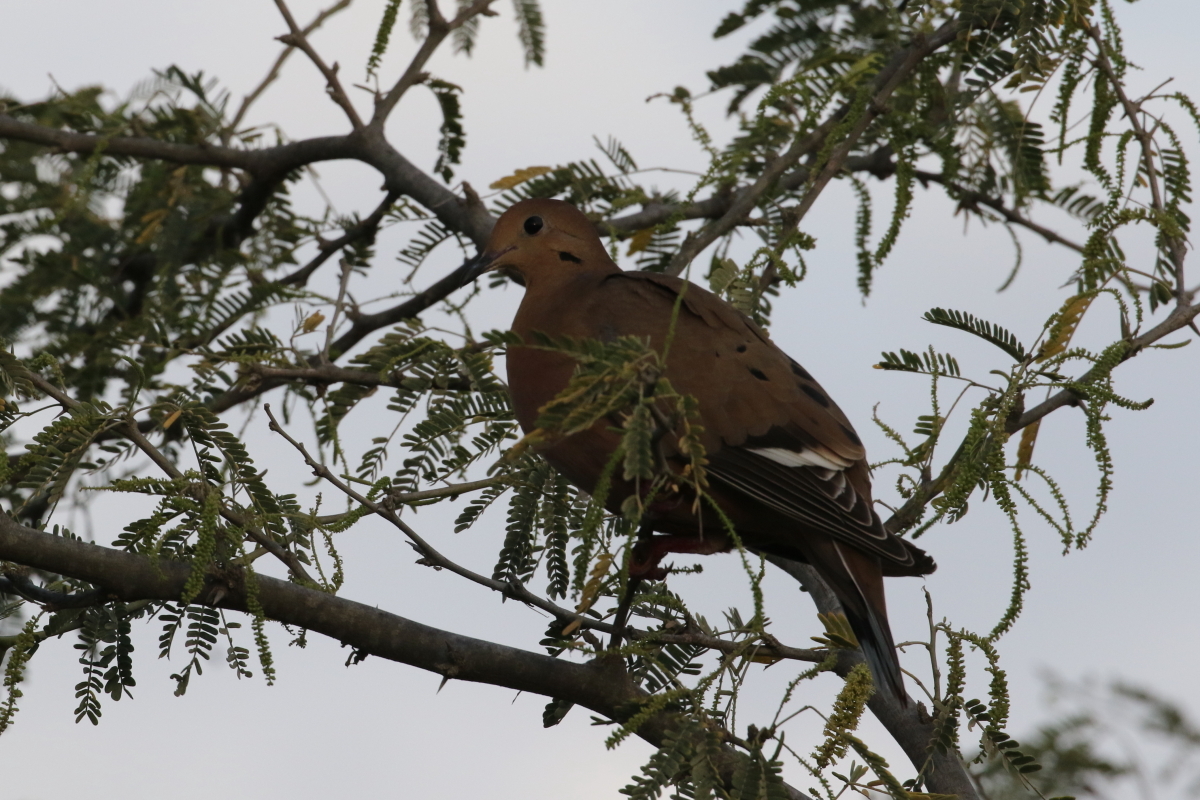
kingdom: Animalia
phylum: Chordata
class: Aves
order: Columbiformes
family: Columbidae
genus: Zenaida
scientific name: Zenaida aurita
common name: Zenaida dove
